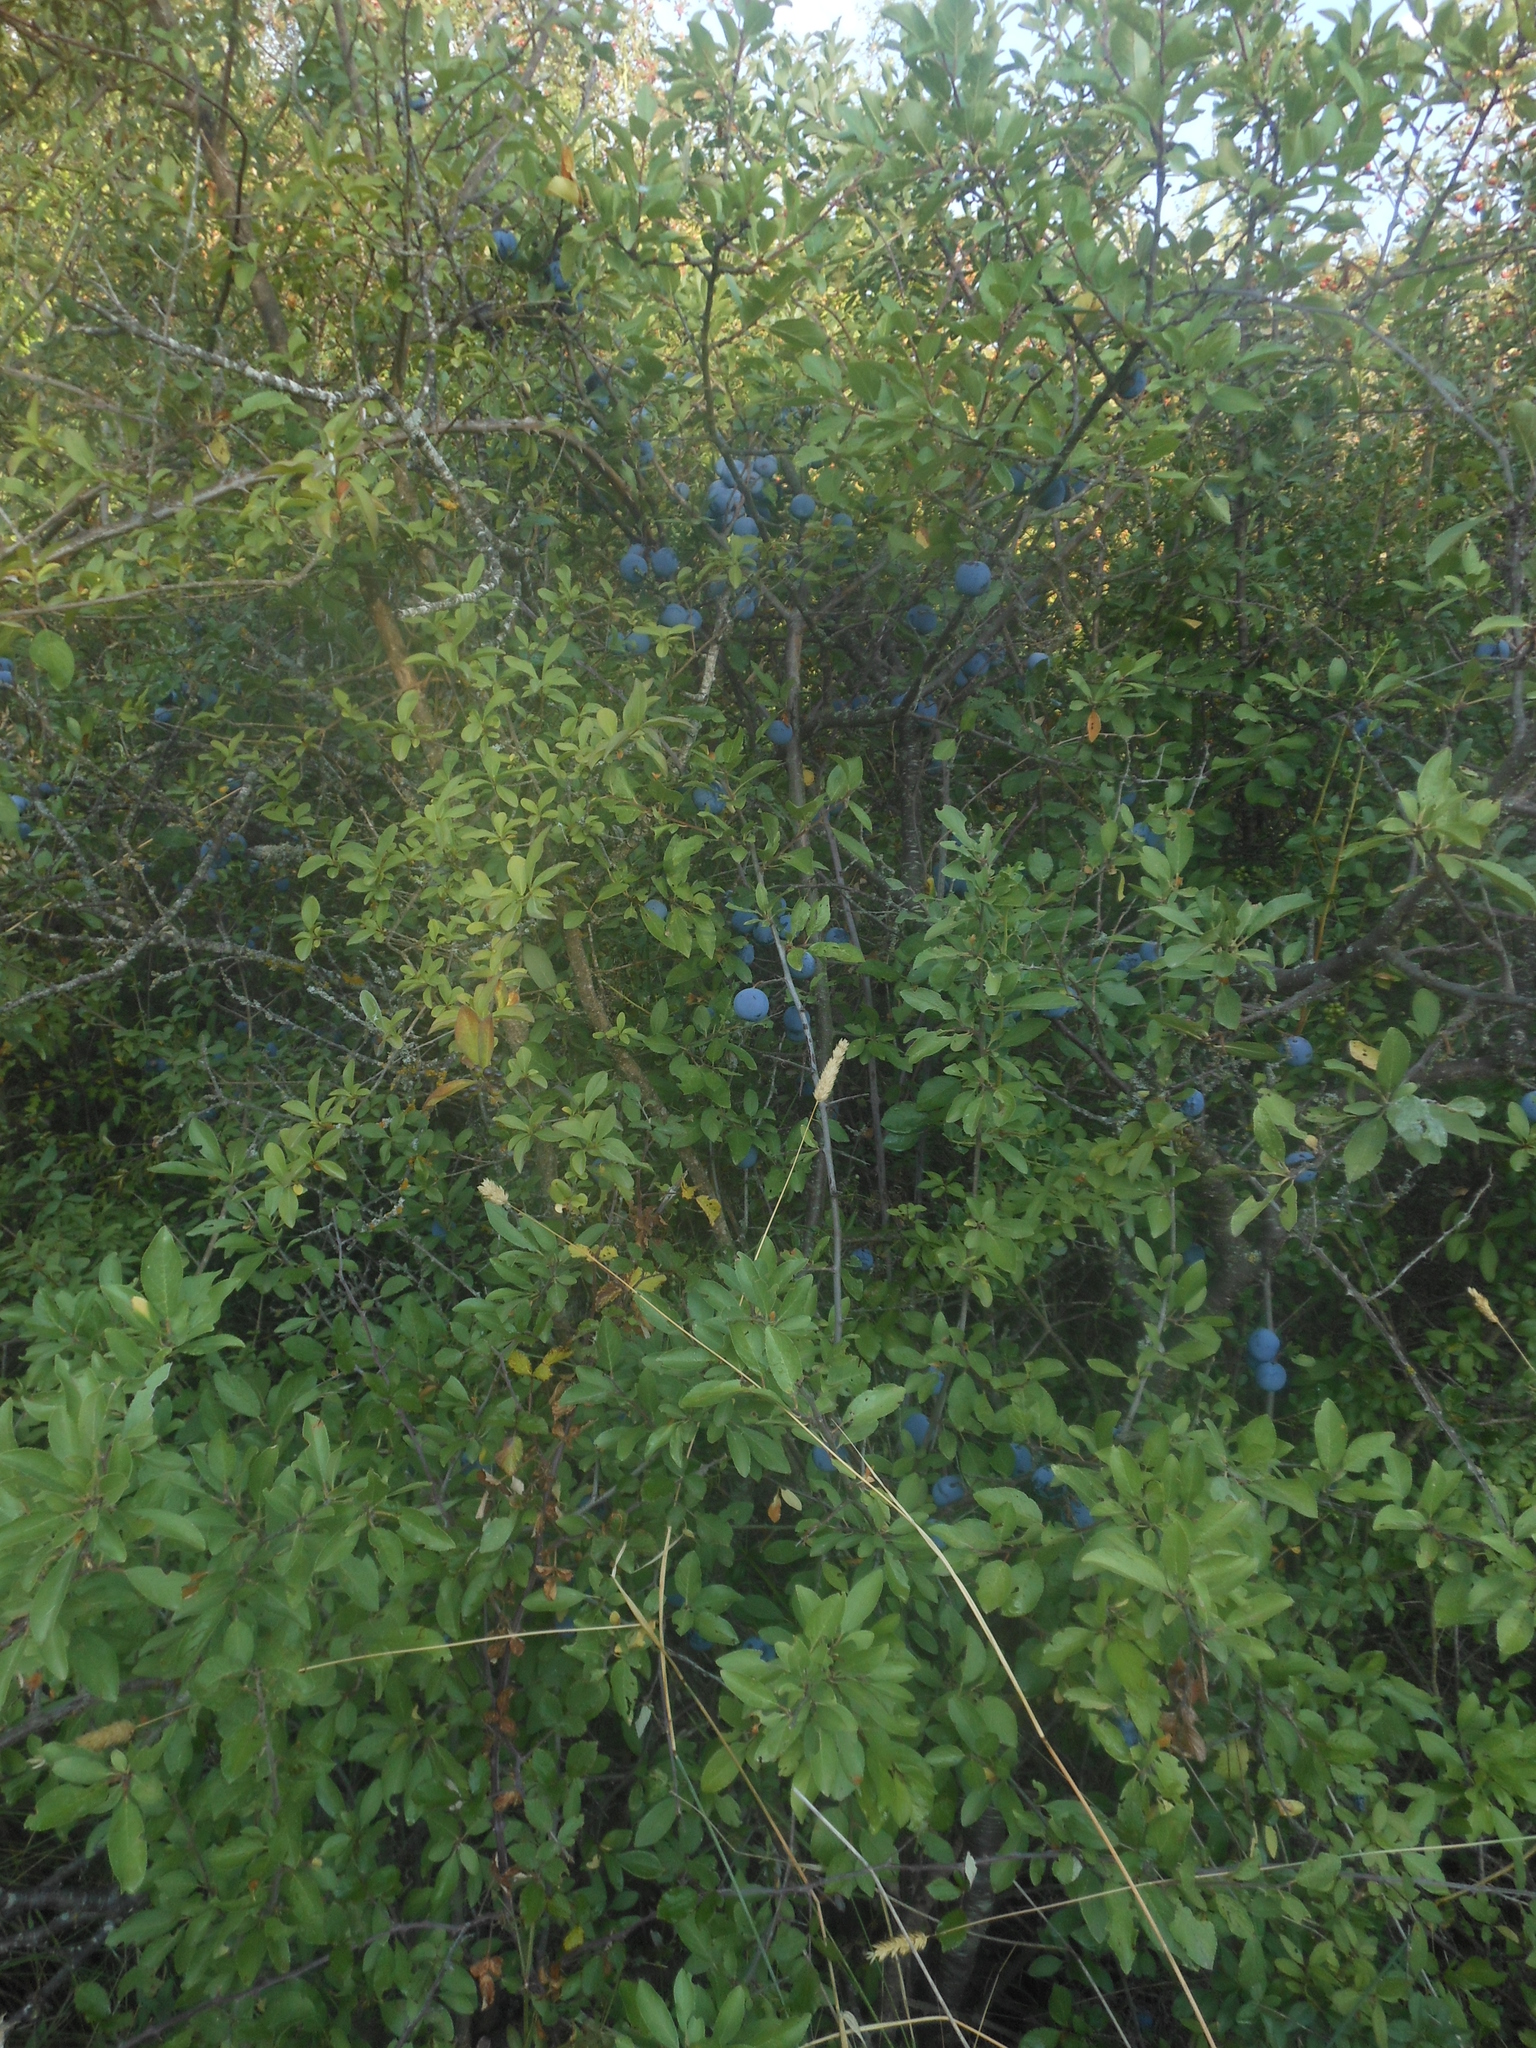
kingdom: Plantae
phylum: Tracheophyta
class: Magnoliopsida
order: Rosales
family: Rosaceae
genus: Prunus
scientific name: Prunus spinosa
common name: Blackthorn
